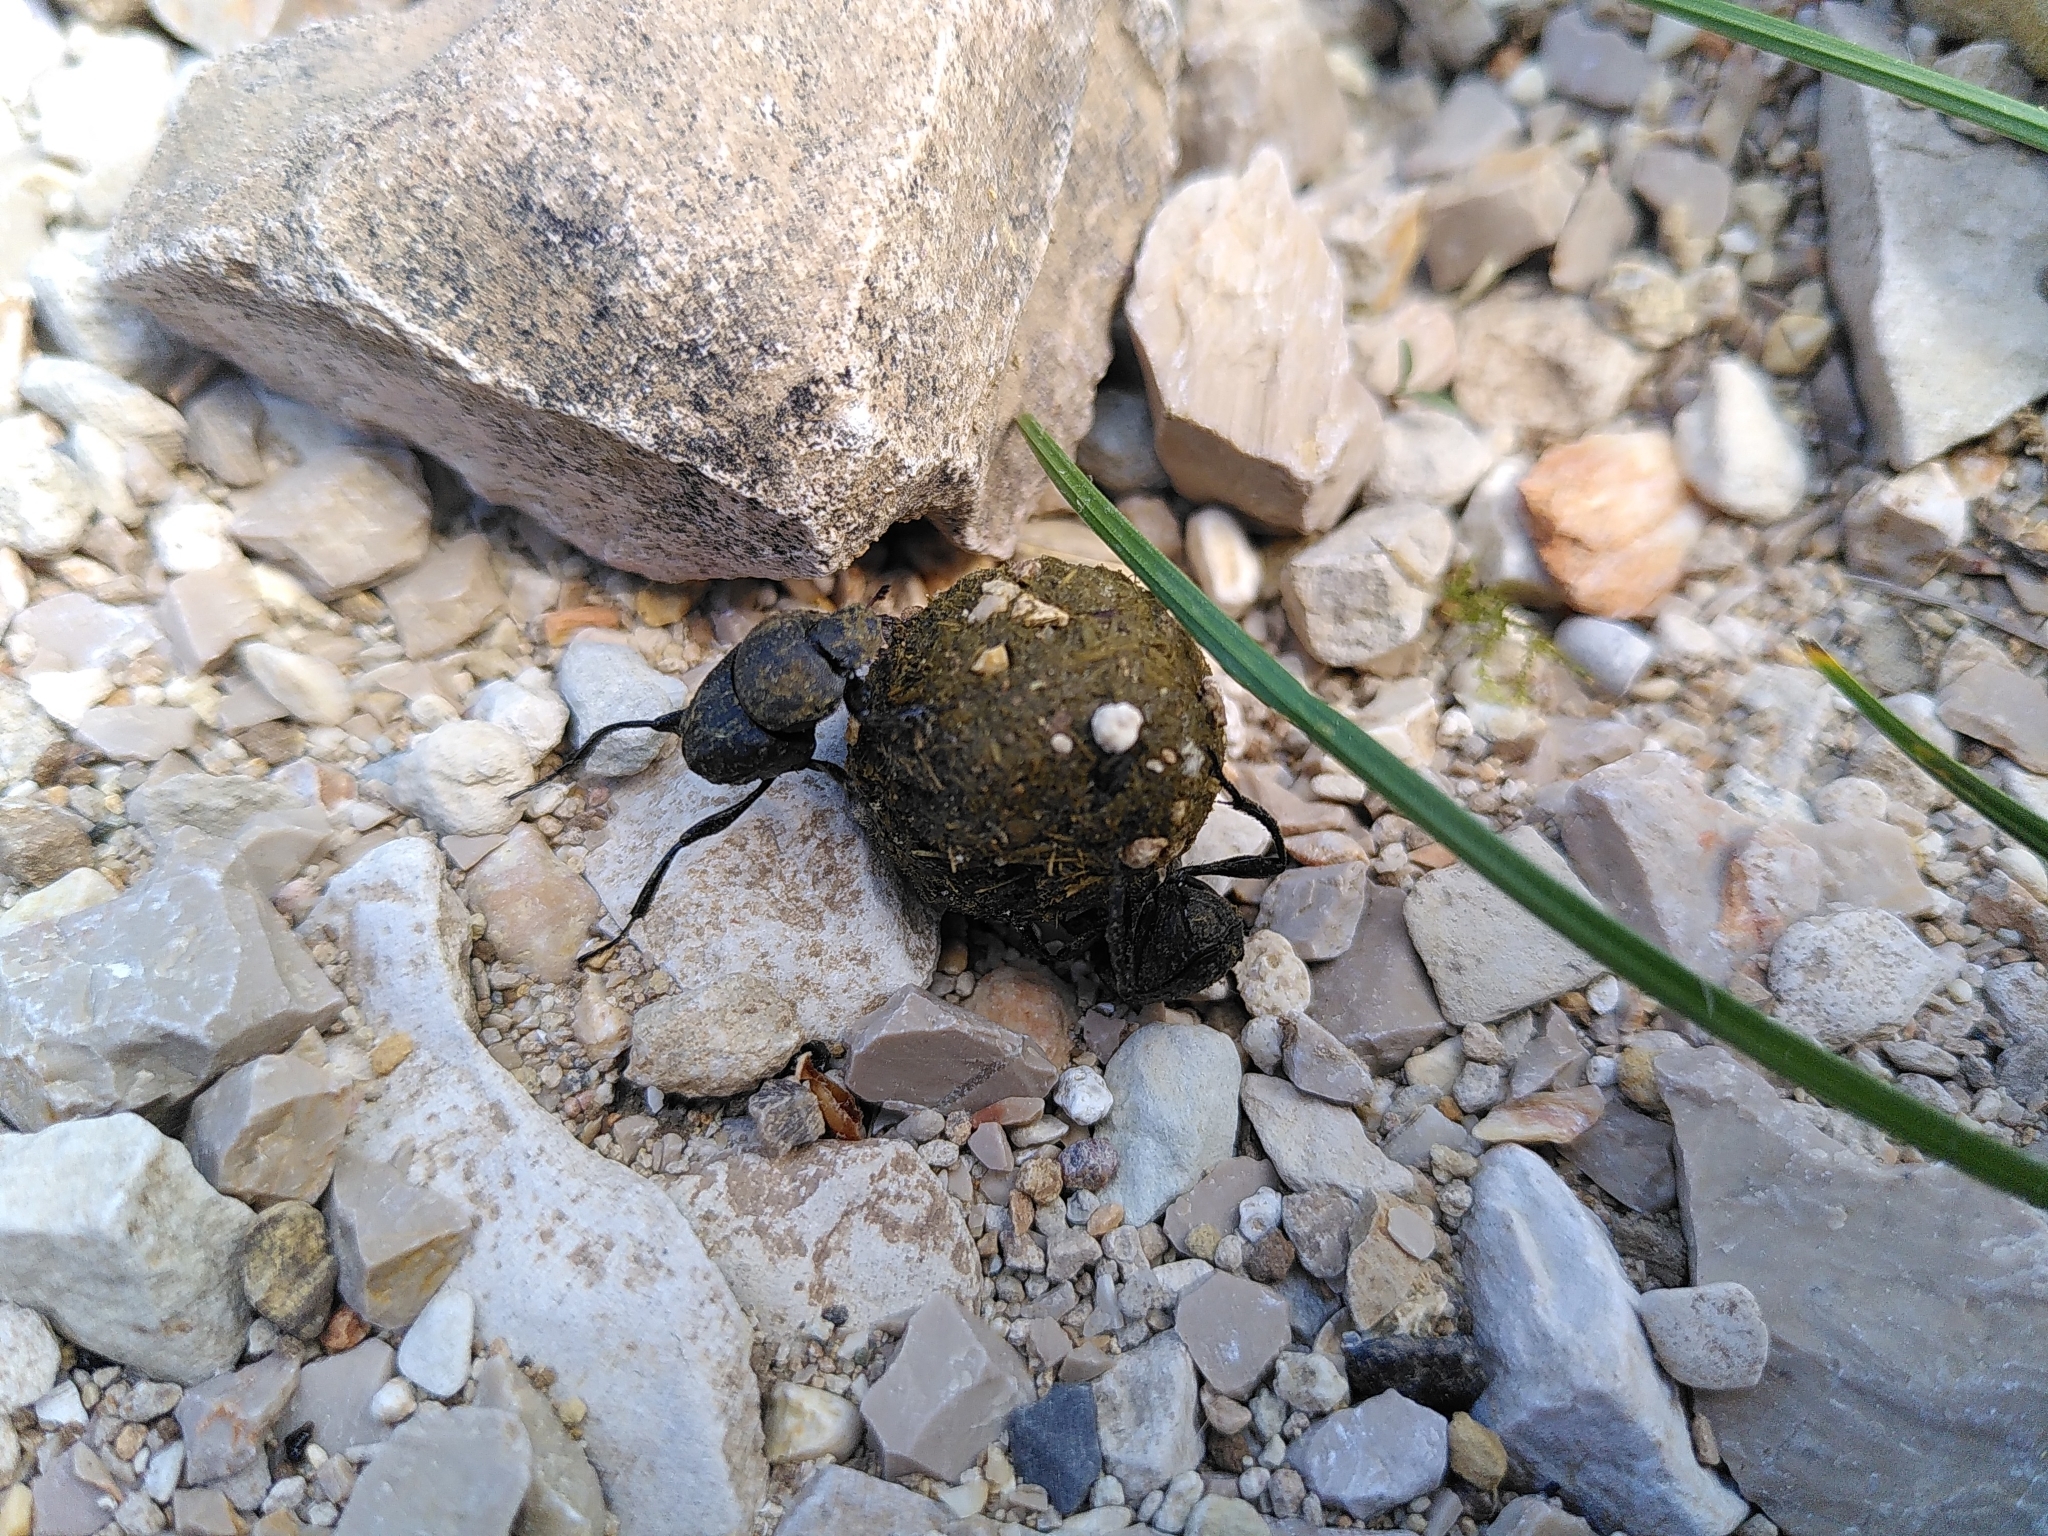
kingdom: Animalia
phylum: Arthropoda
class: Insecta
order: Coleoptera
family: Scarabaeidae
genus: Sisyphus
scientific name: Sisyphus schaefferi
